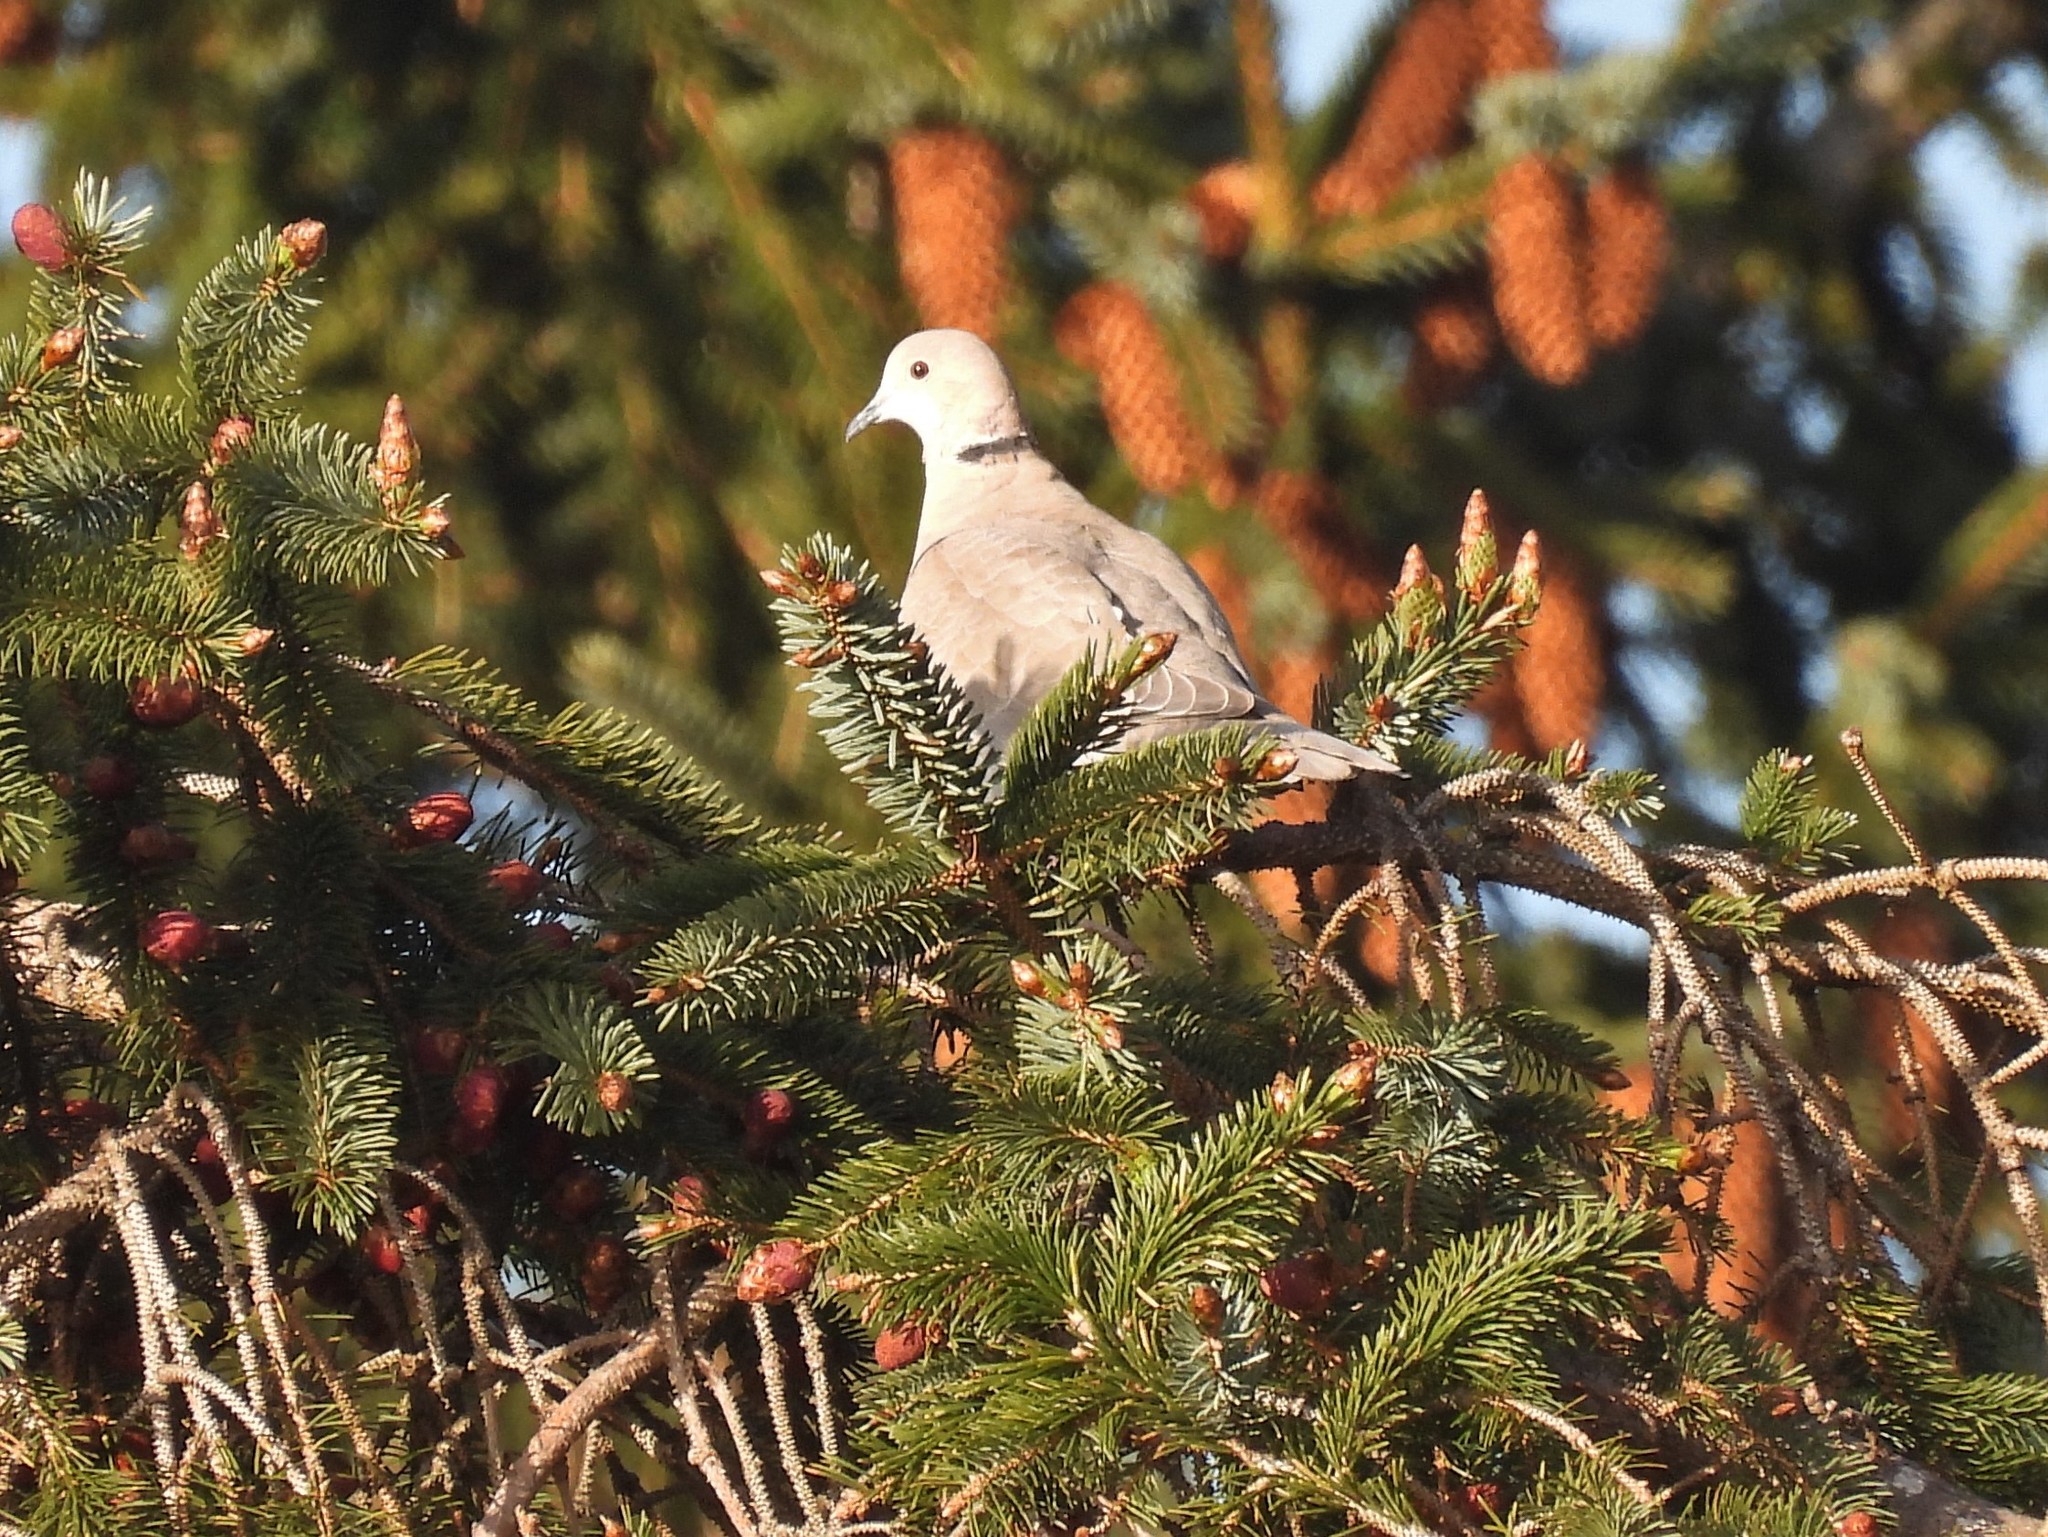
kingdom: Animalia
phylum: Chordata
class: Aves
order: Columbiformes
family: Columbidae
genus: Streptopelia
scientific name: Streptopelia decaocto
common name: Eurasian collared dove
